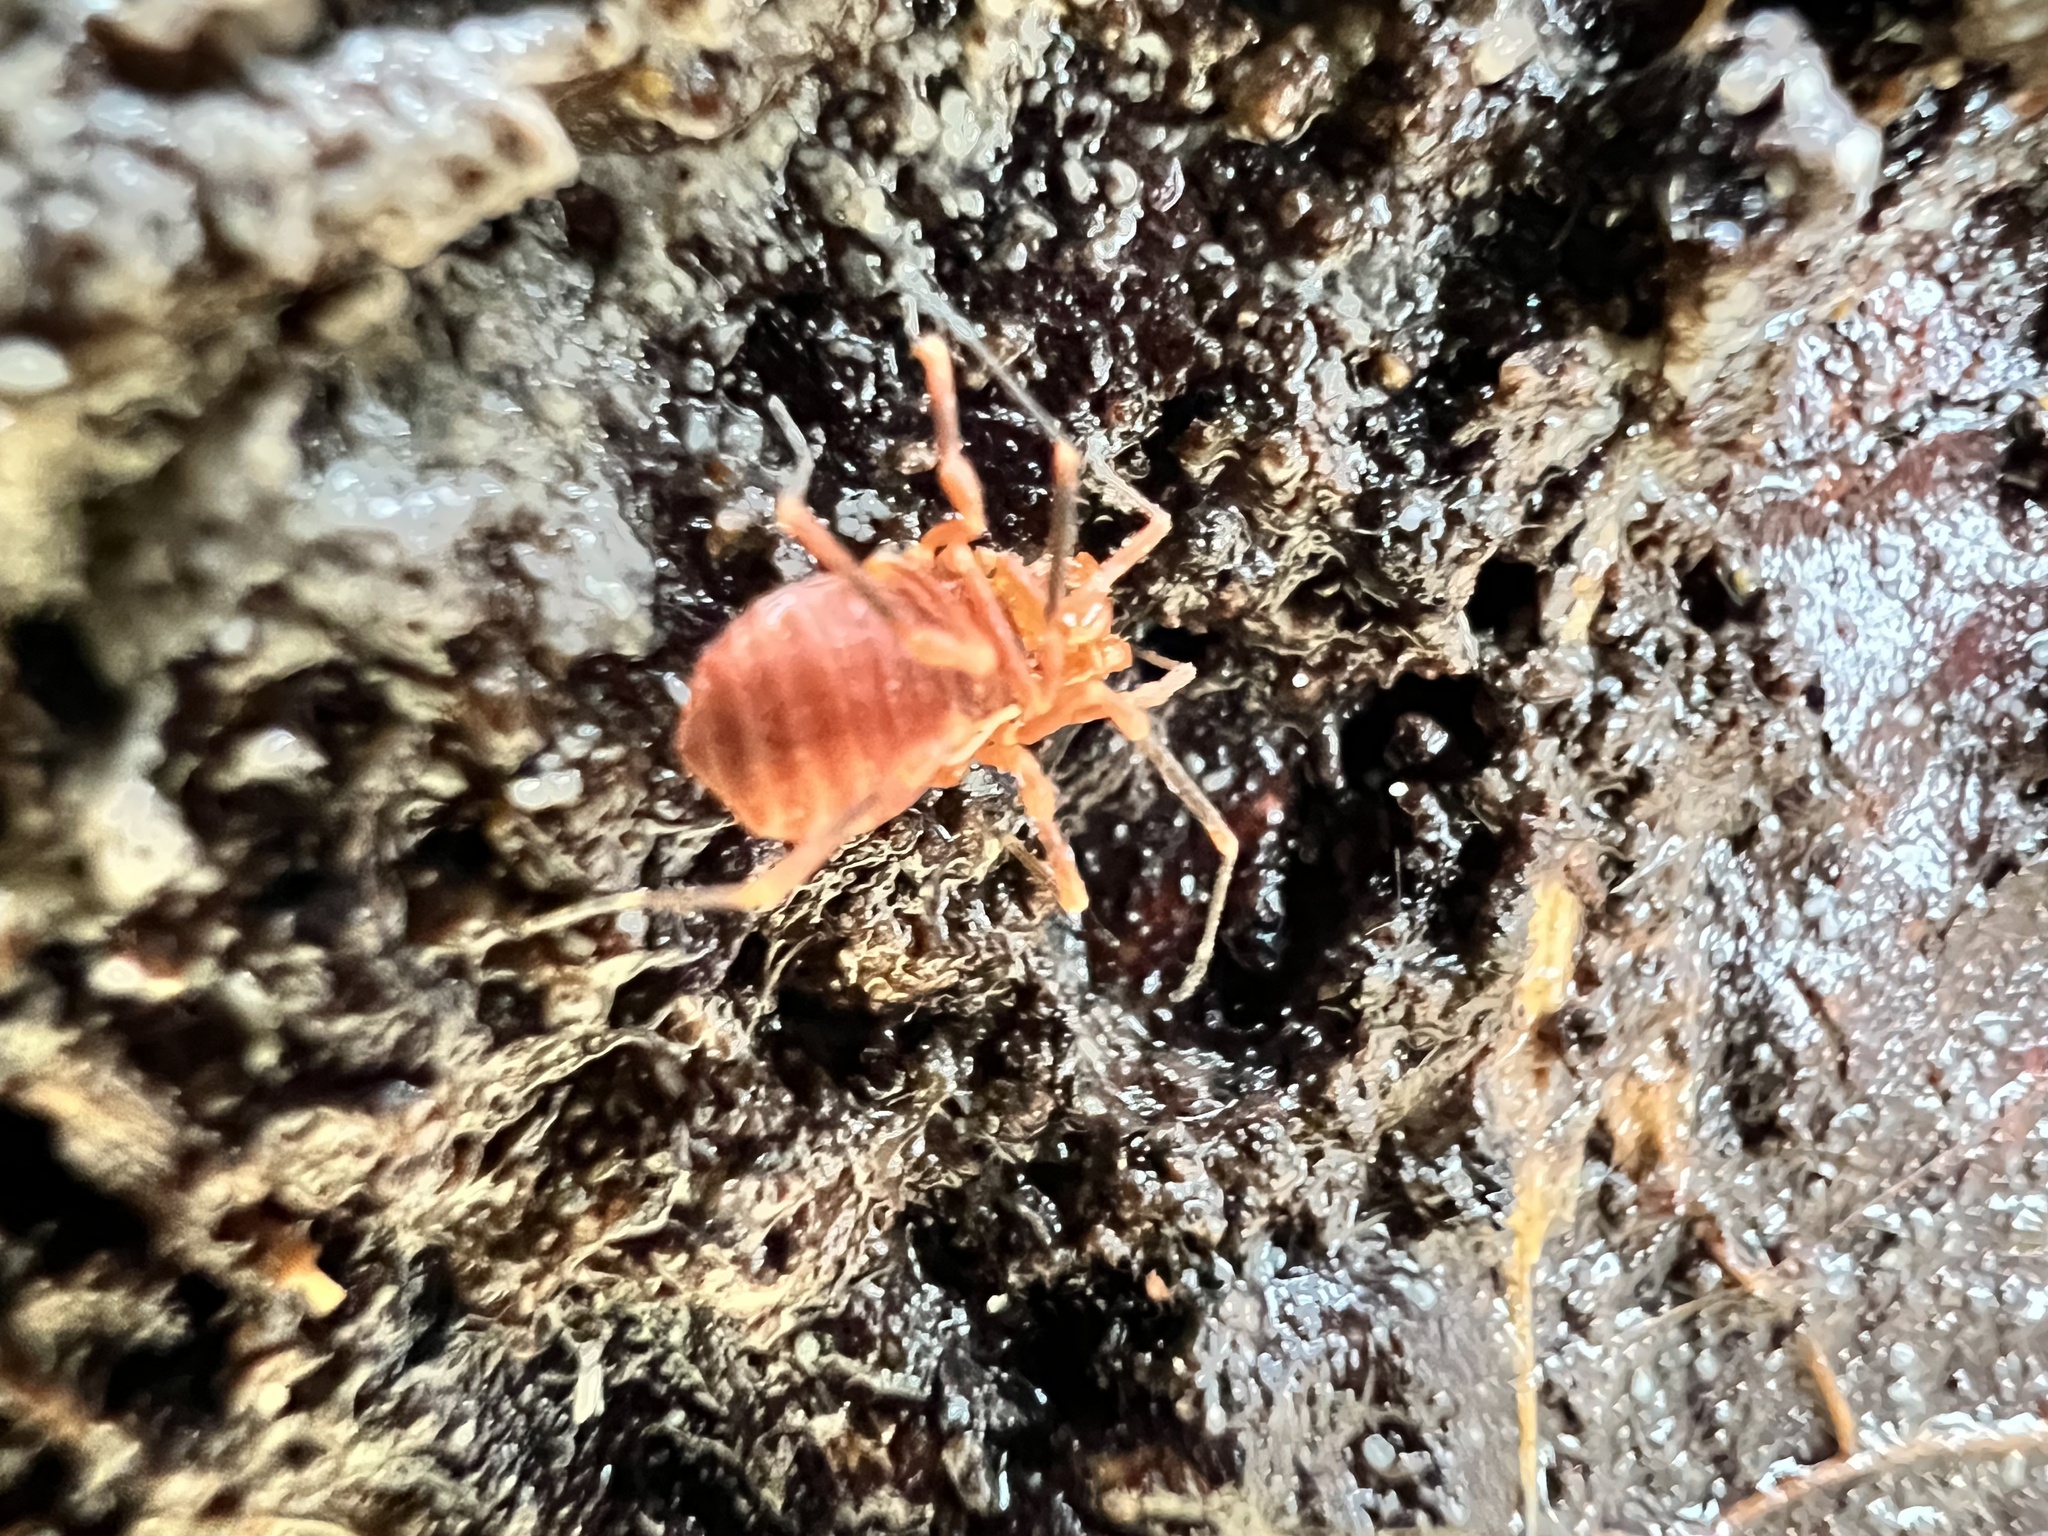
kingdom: Animalia
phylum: Arthropoda
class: Arachnida
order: Opiliones
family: Paranonychidae
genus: Sclerobunus
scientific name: Sclerobunus nondimorphicus
